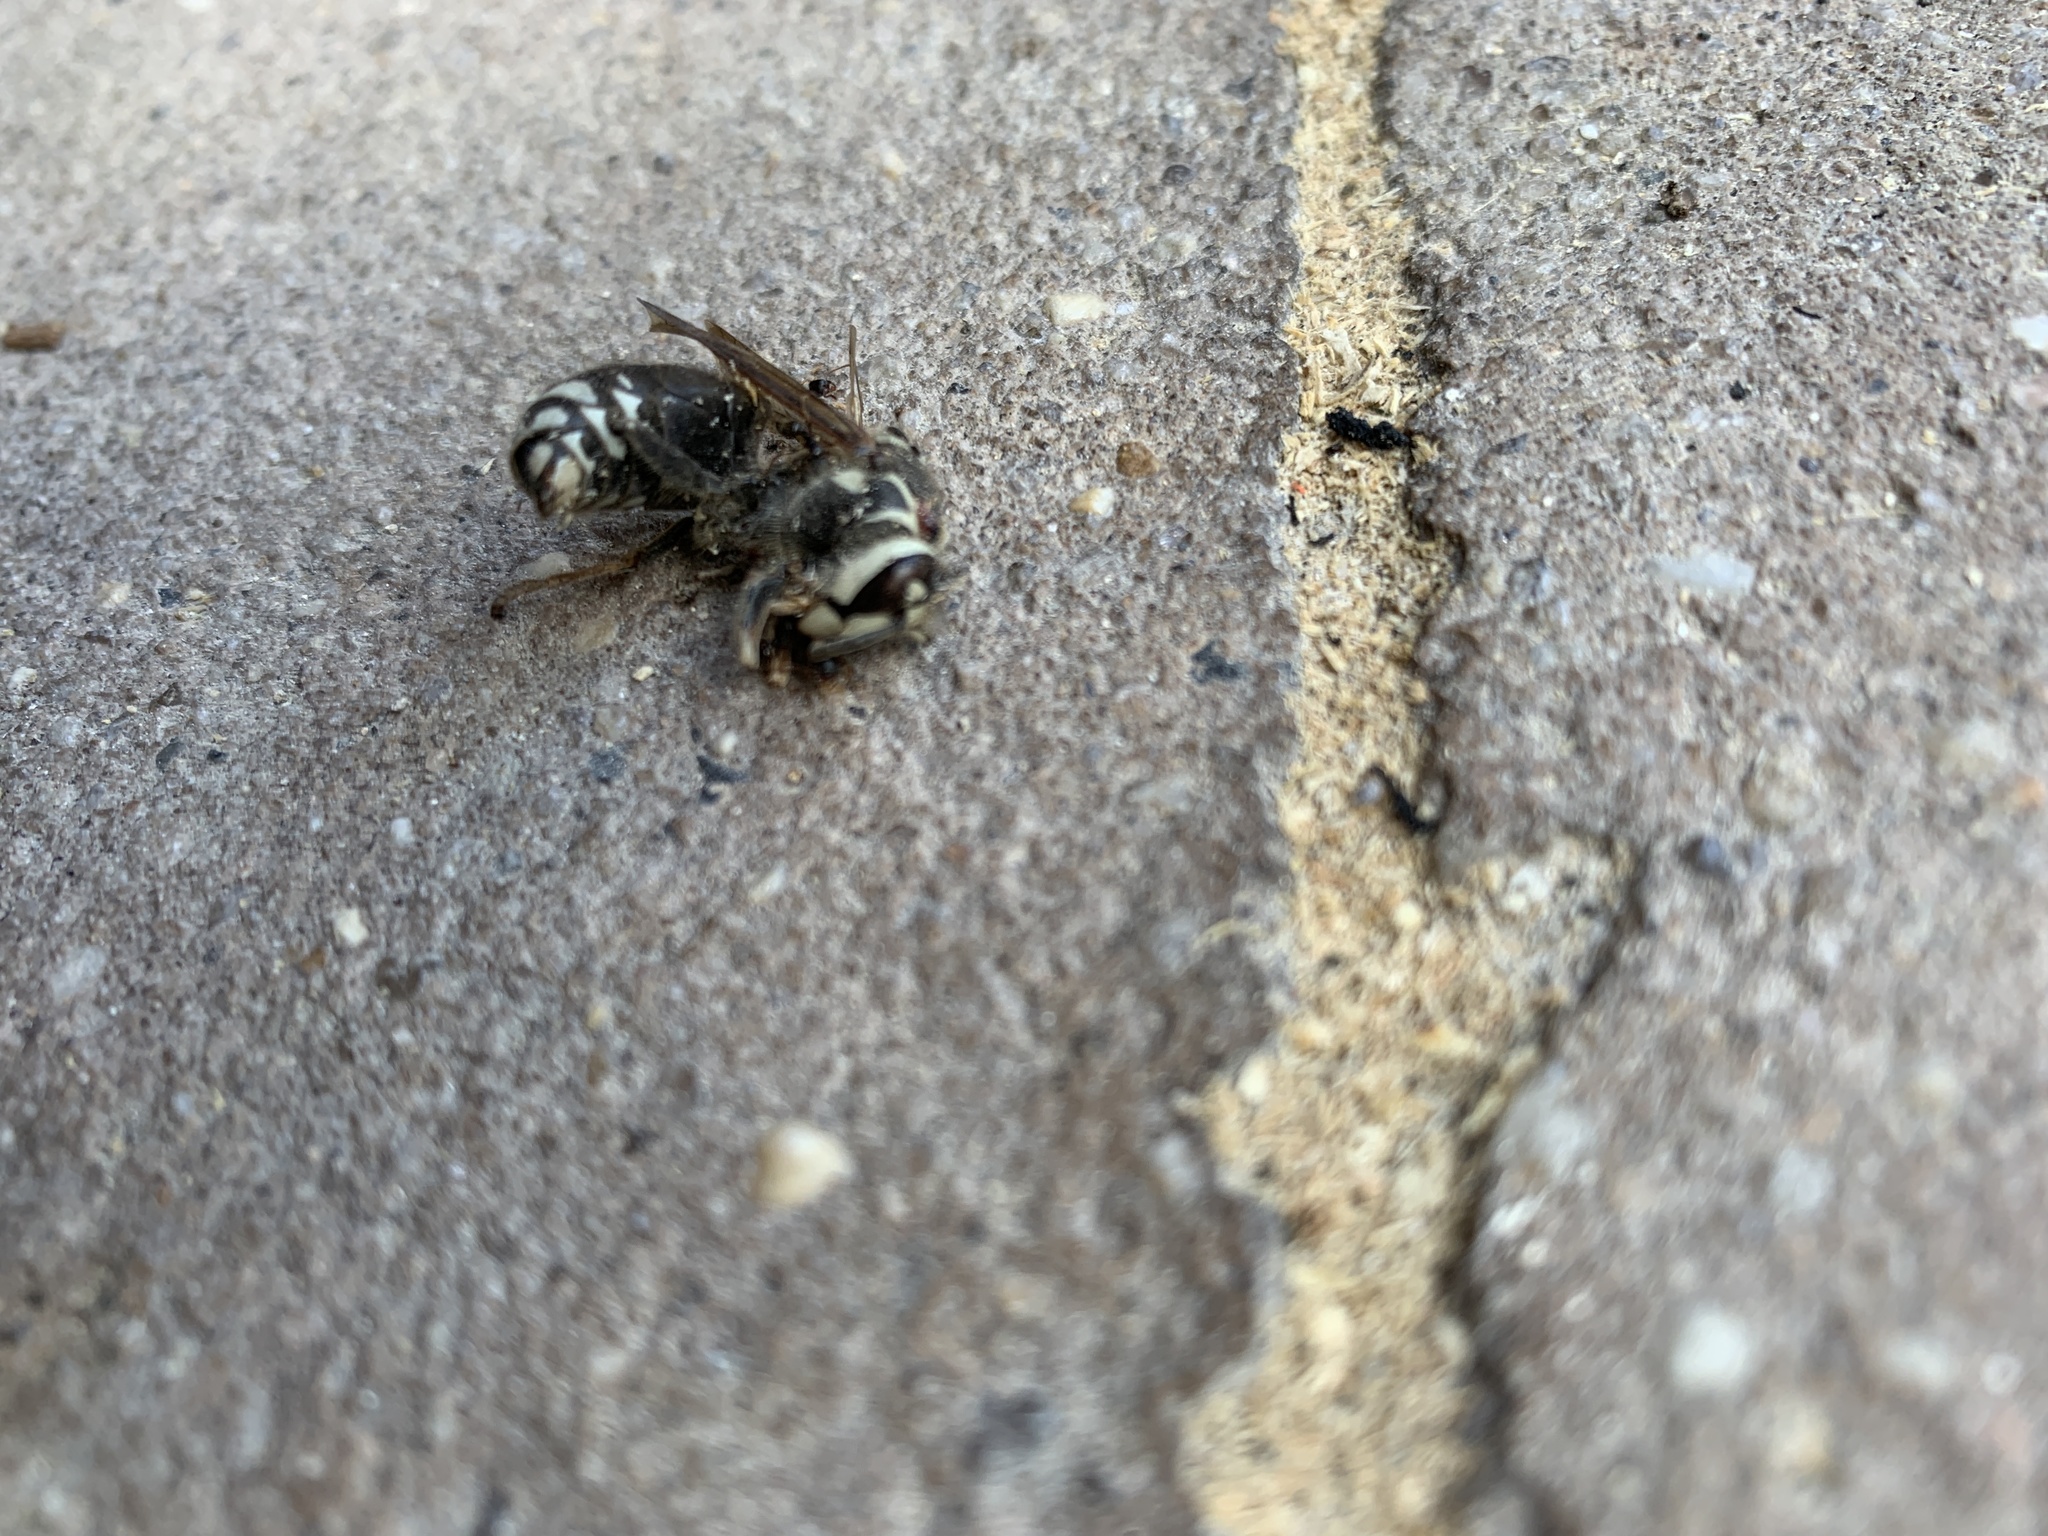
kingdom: Animalia
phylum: Arthropoda
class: Insecta
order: Hymenoptera
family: Vespidae
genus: Dolichovespula
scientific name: Dolichovespula maculata
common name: Bald-faced hornet
